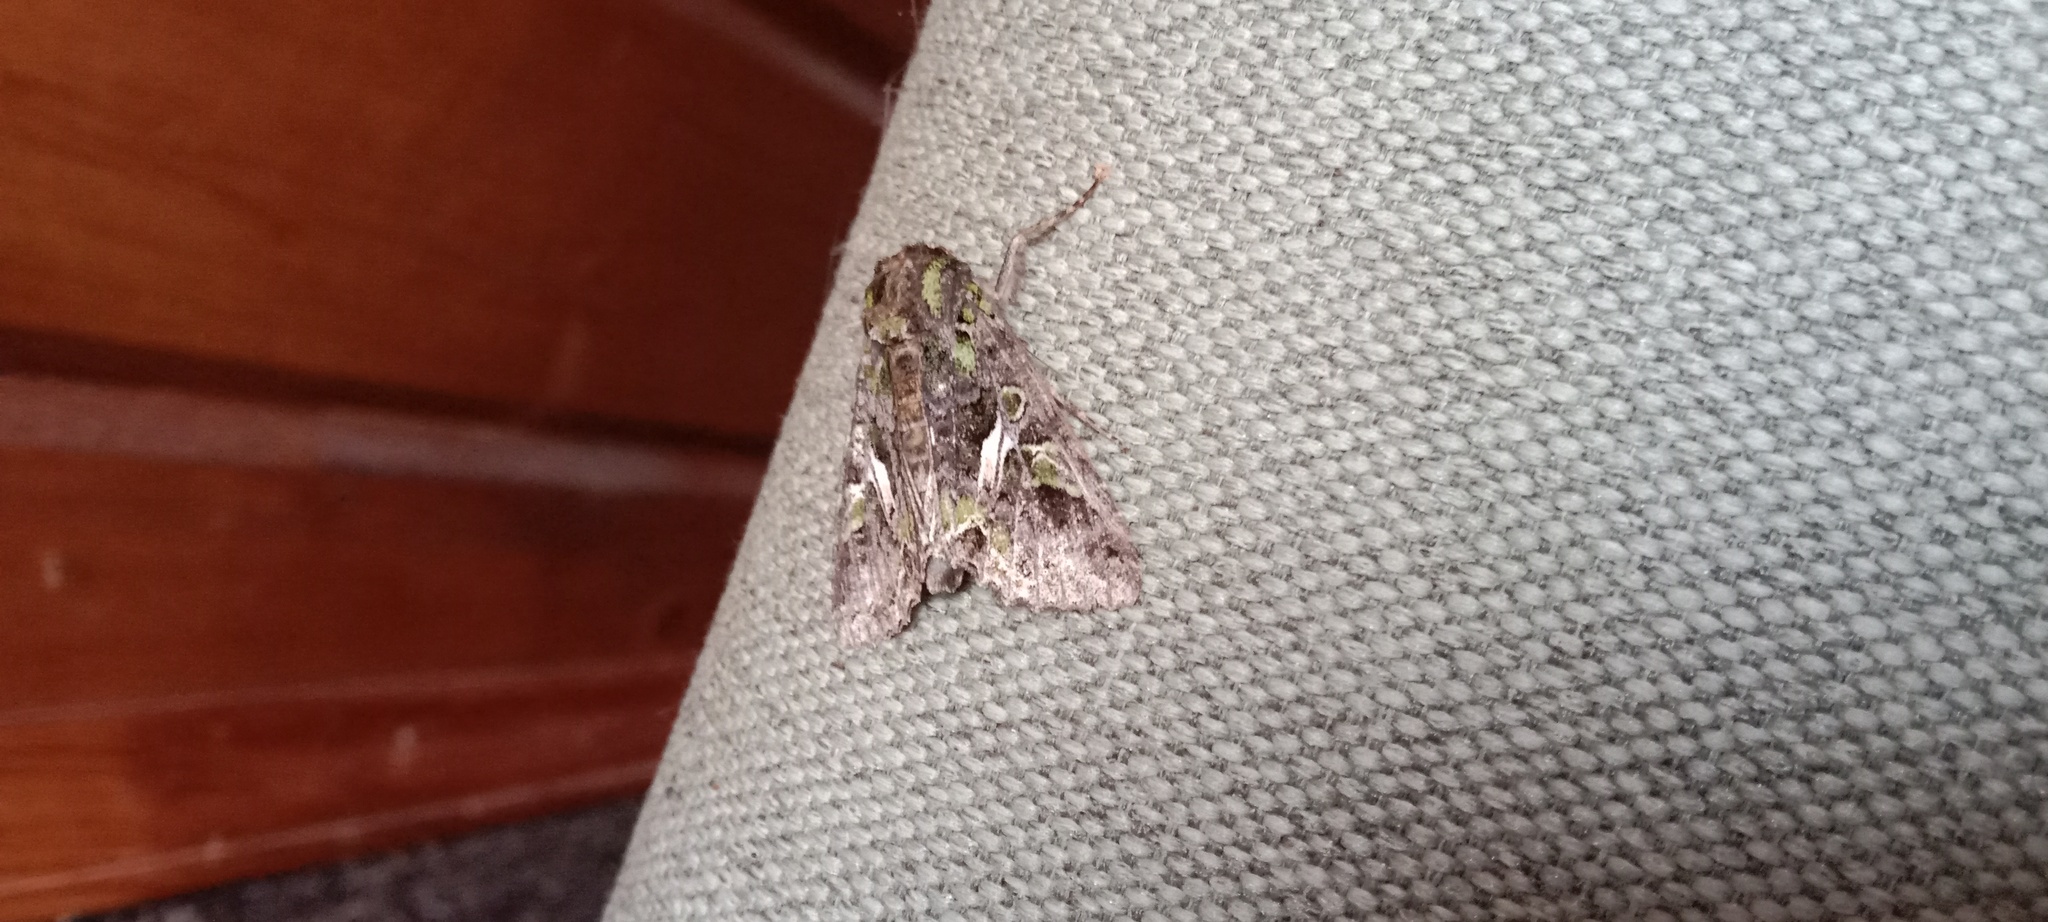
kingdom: Animalia
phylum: Arthropoda
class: Insecta
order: Lepidoptera
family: Noctuidae
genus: Trachea
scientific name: Trachea atriplicis
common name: Orache moth
